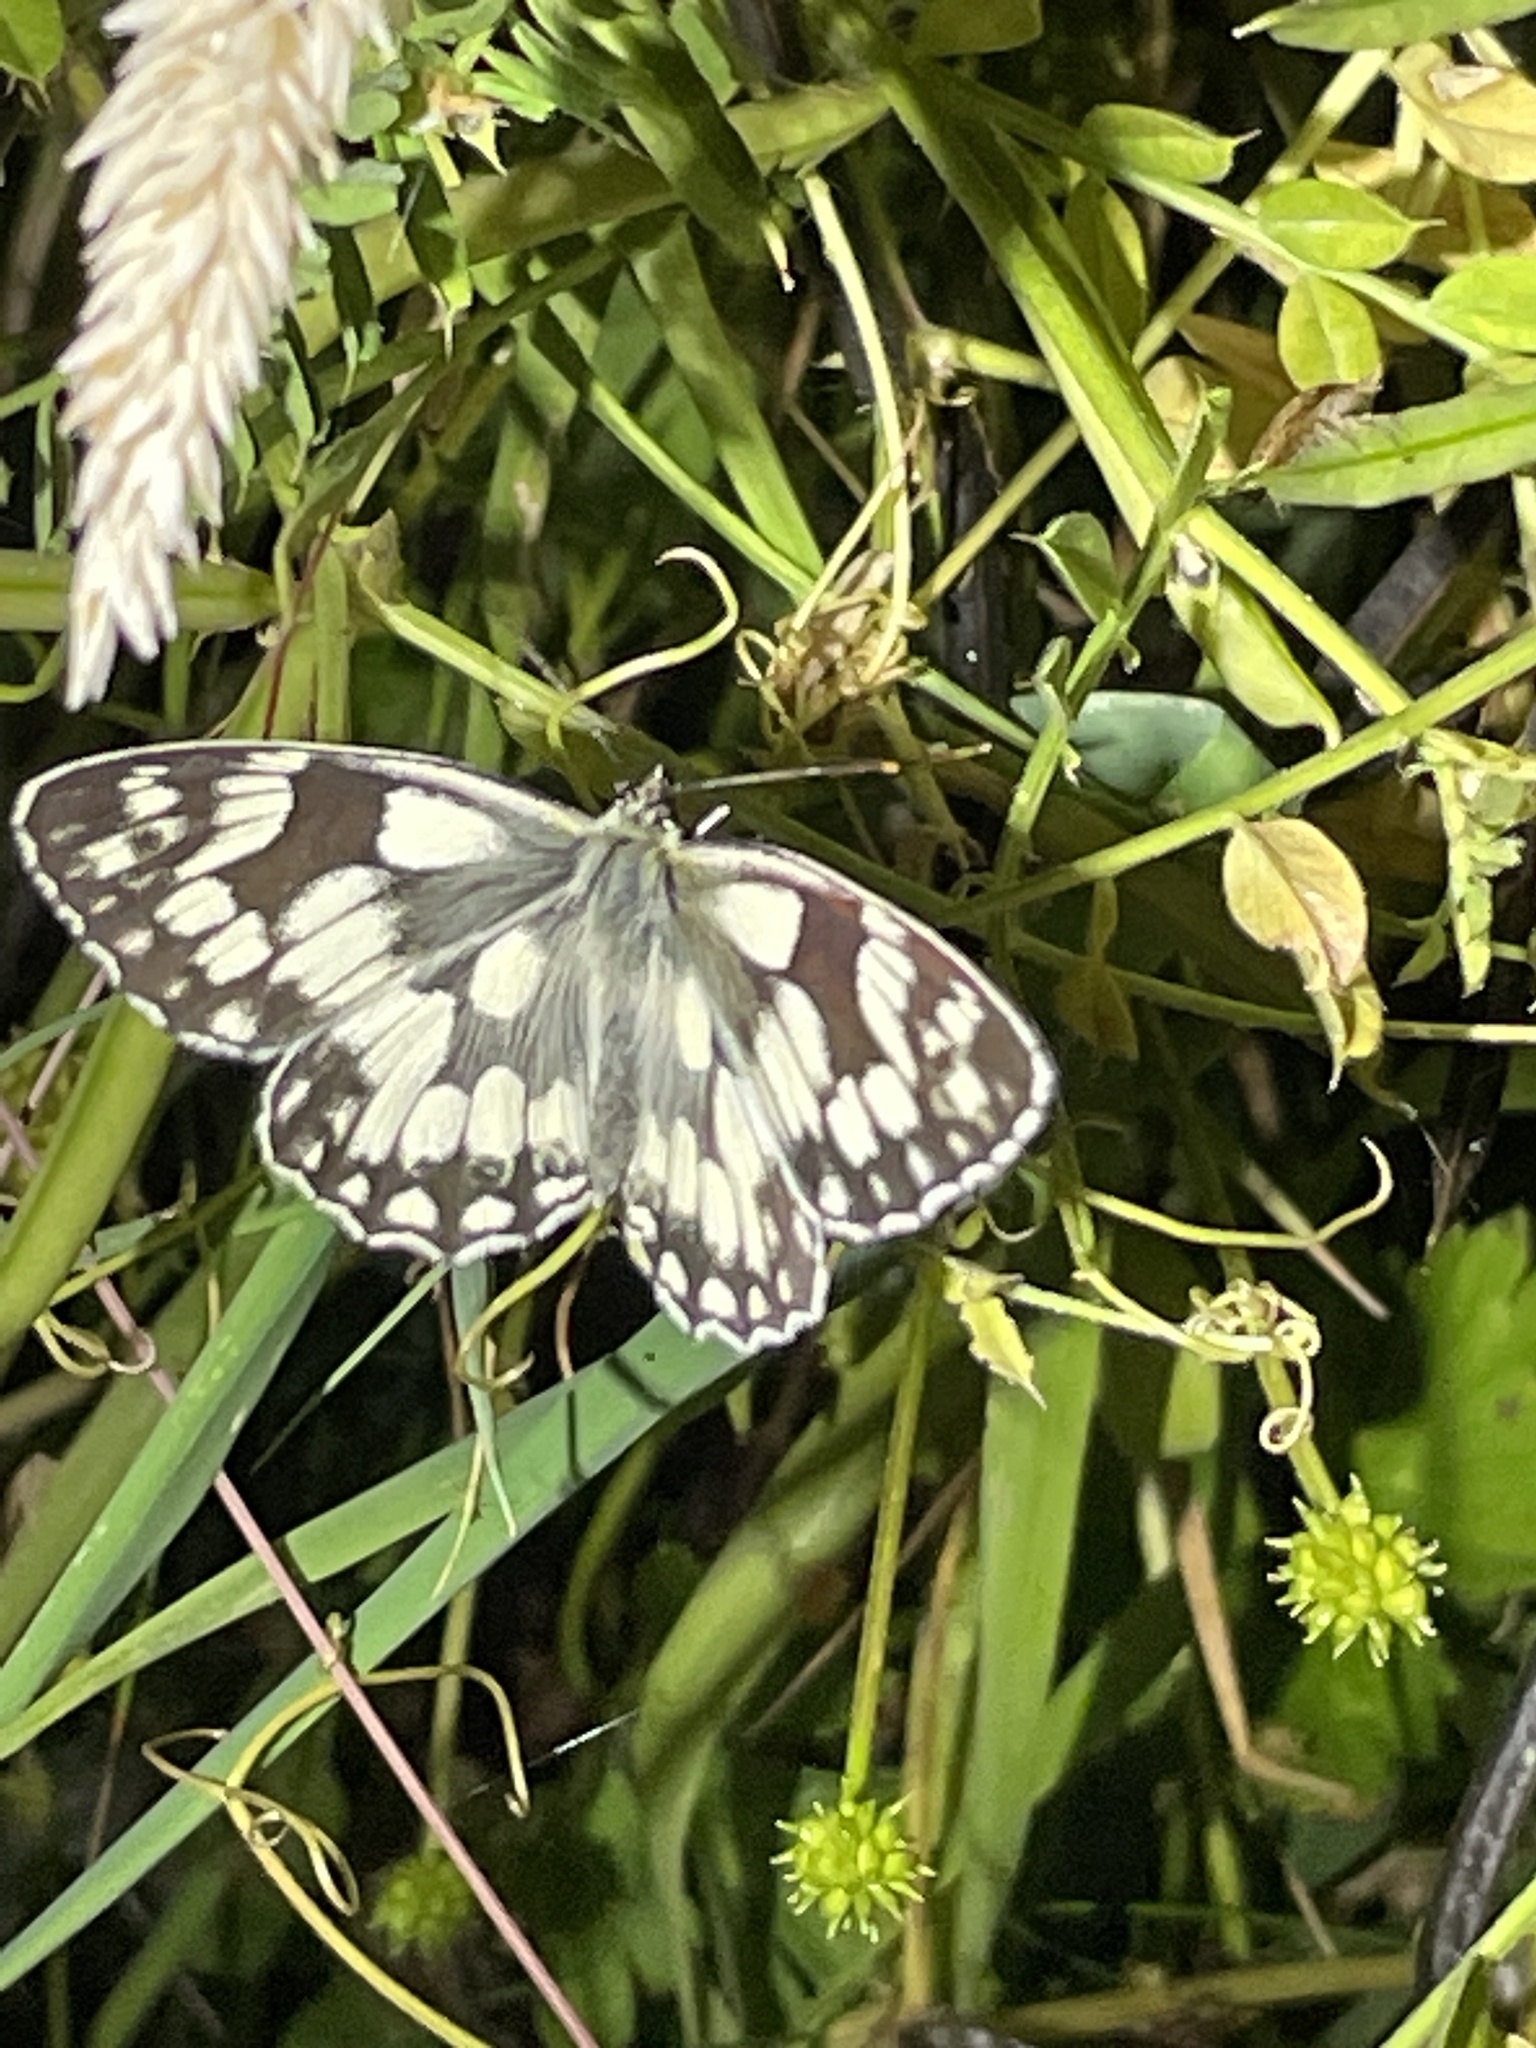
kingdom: Animalia
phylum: Arthropoda
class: Insecta
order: Lepidoptera
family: Nymphalidae
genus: Melanargia
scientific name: Melanargia galathea
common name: Marbled white
